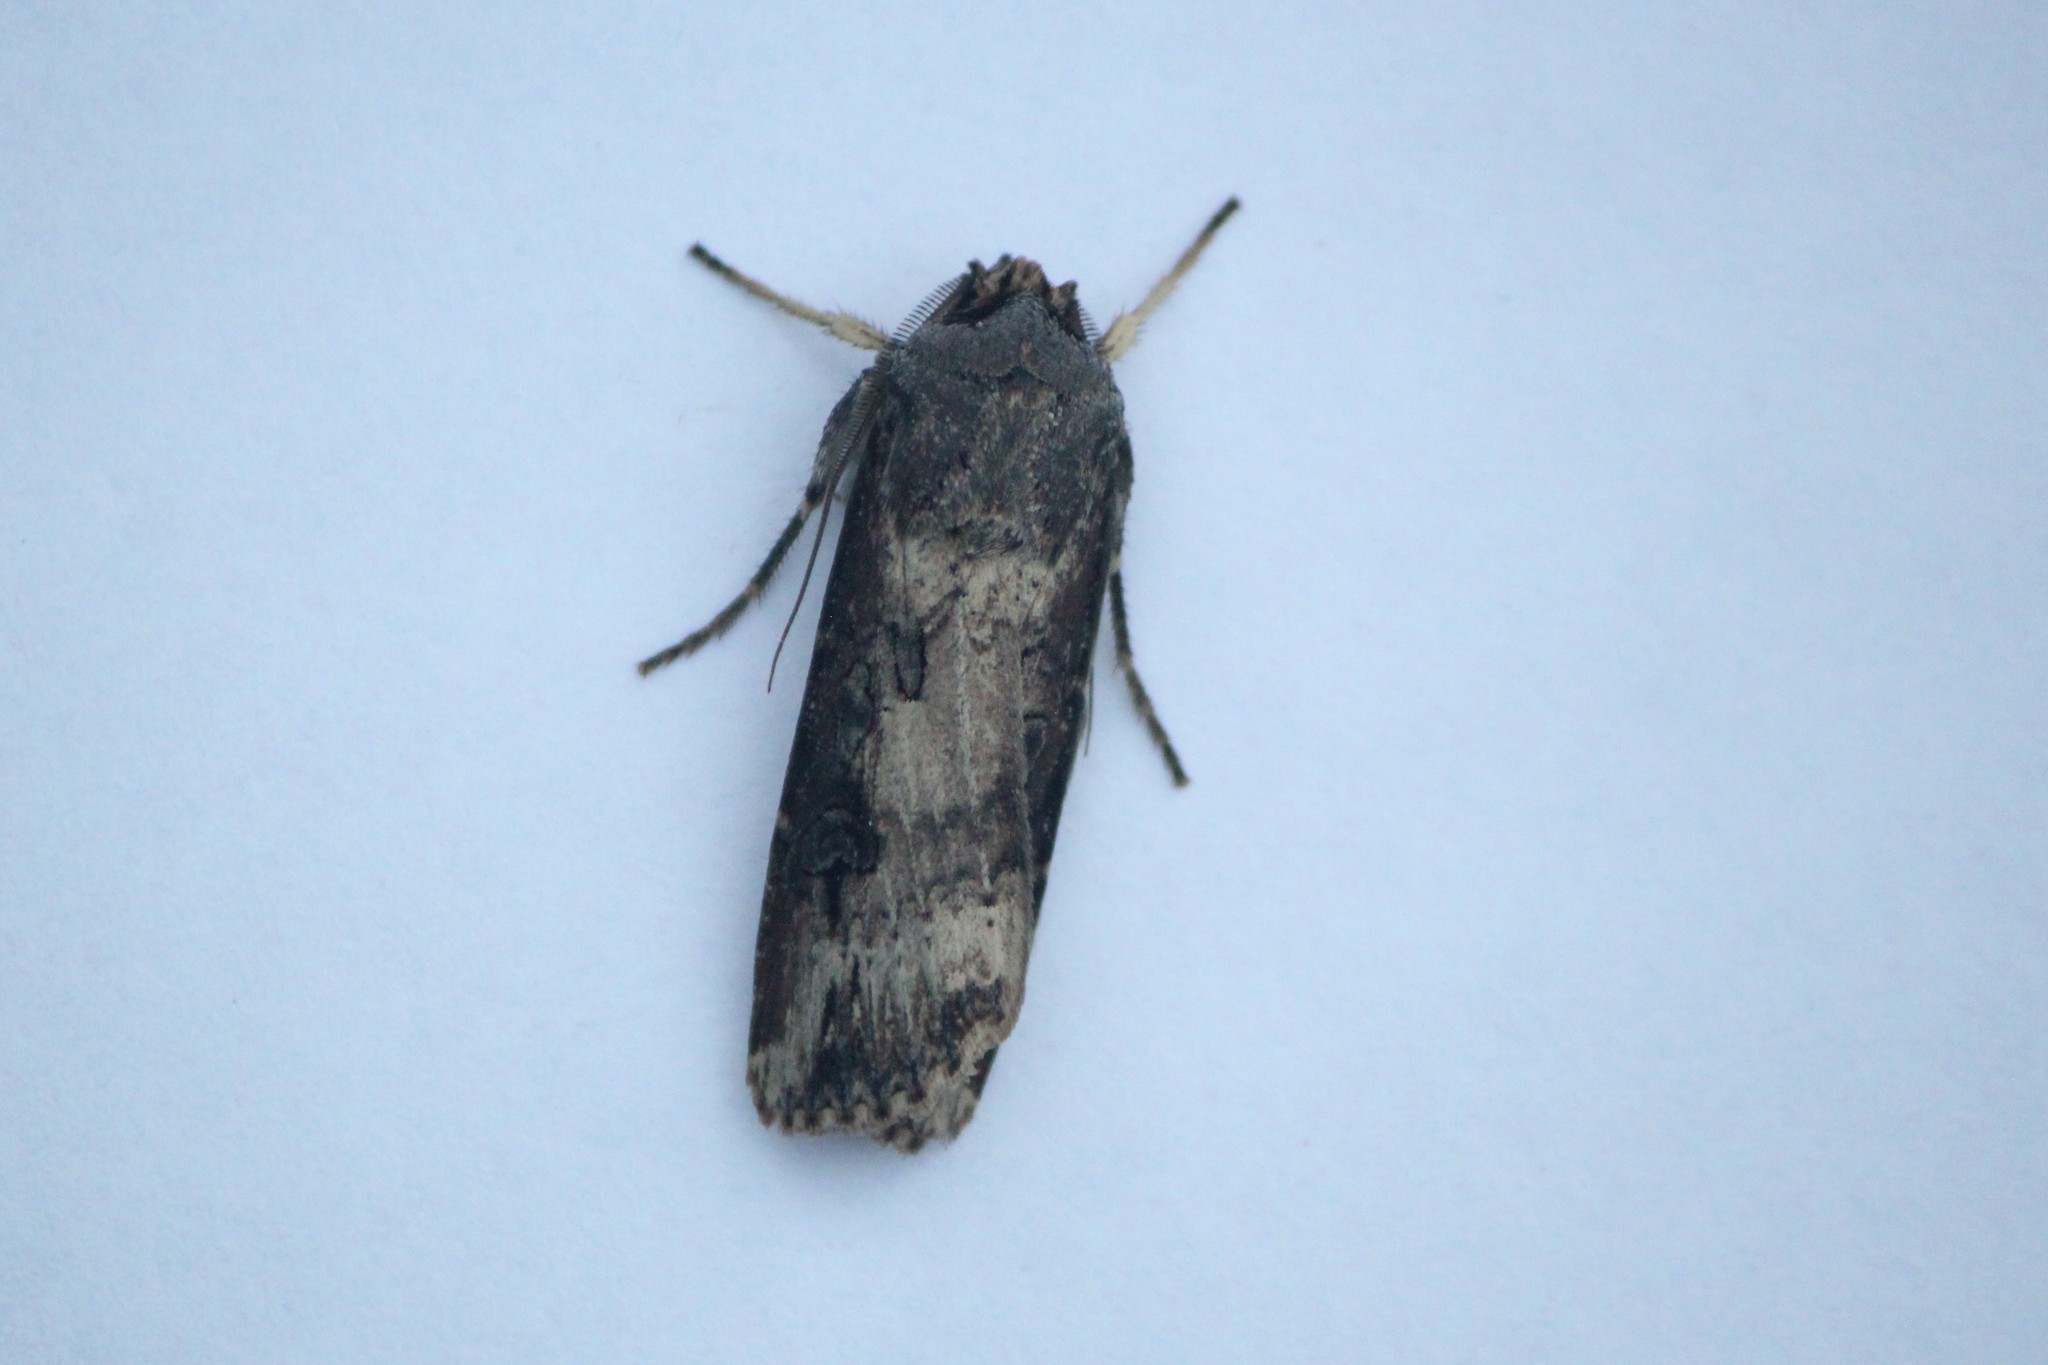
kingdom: Animalia
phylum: Arthropoda
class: Insecta
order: Lepidoptera
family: Noctuidae
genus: Agrotis
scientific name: Agrotis ipsilon
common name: Dark sword-grass
